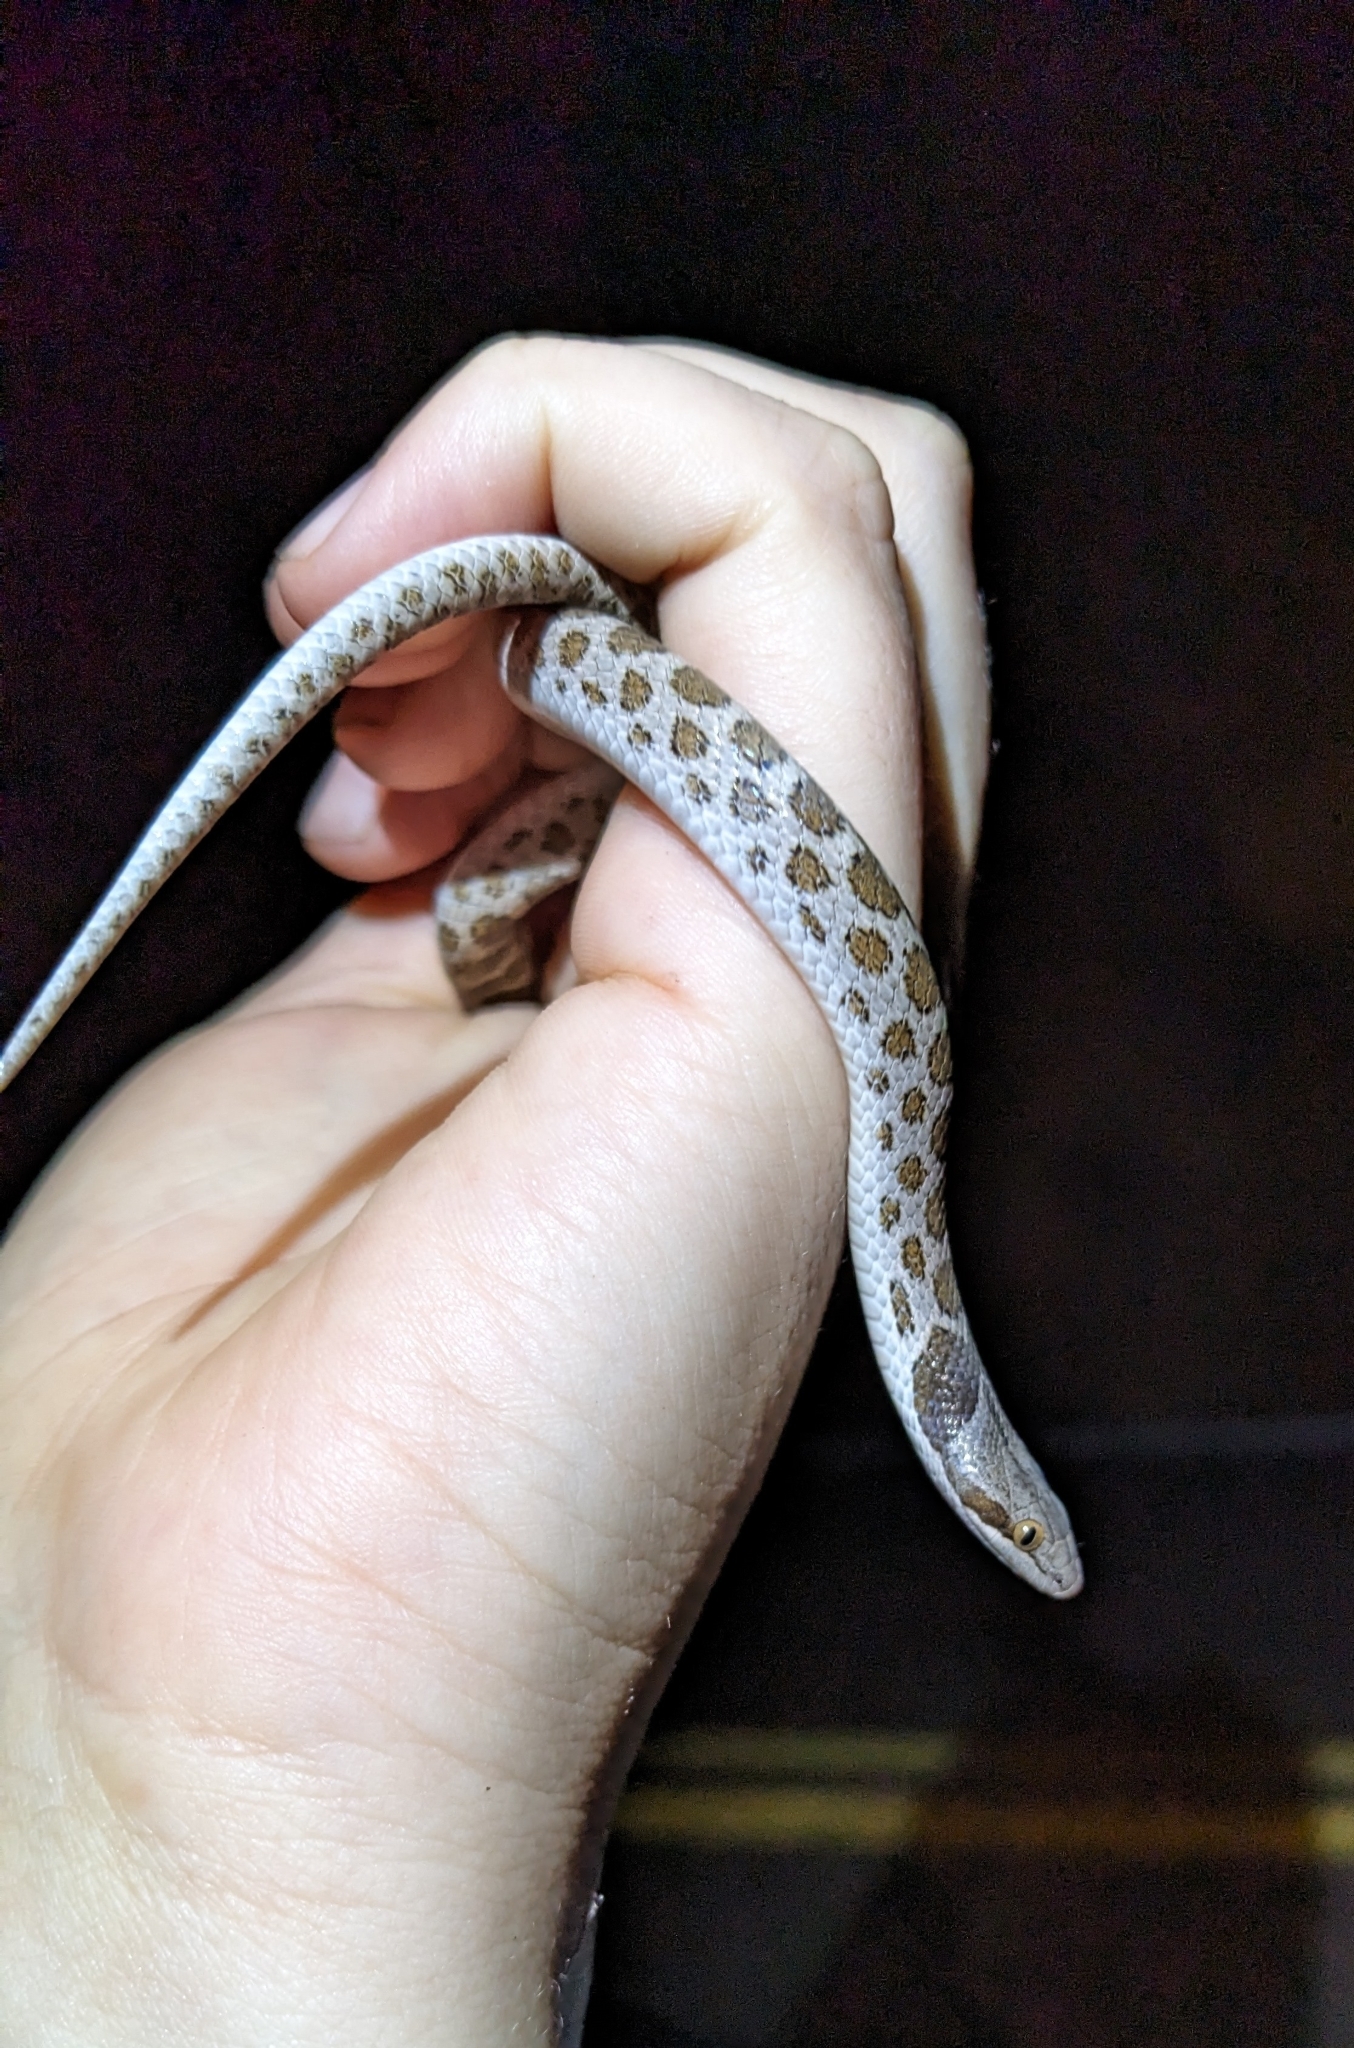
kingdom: Animalia
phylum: Chordata
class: Squamata
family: Colubridae
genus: Hypsiglena
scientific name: Hypsiglena jani
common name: Chihuahuan nightsnake
